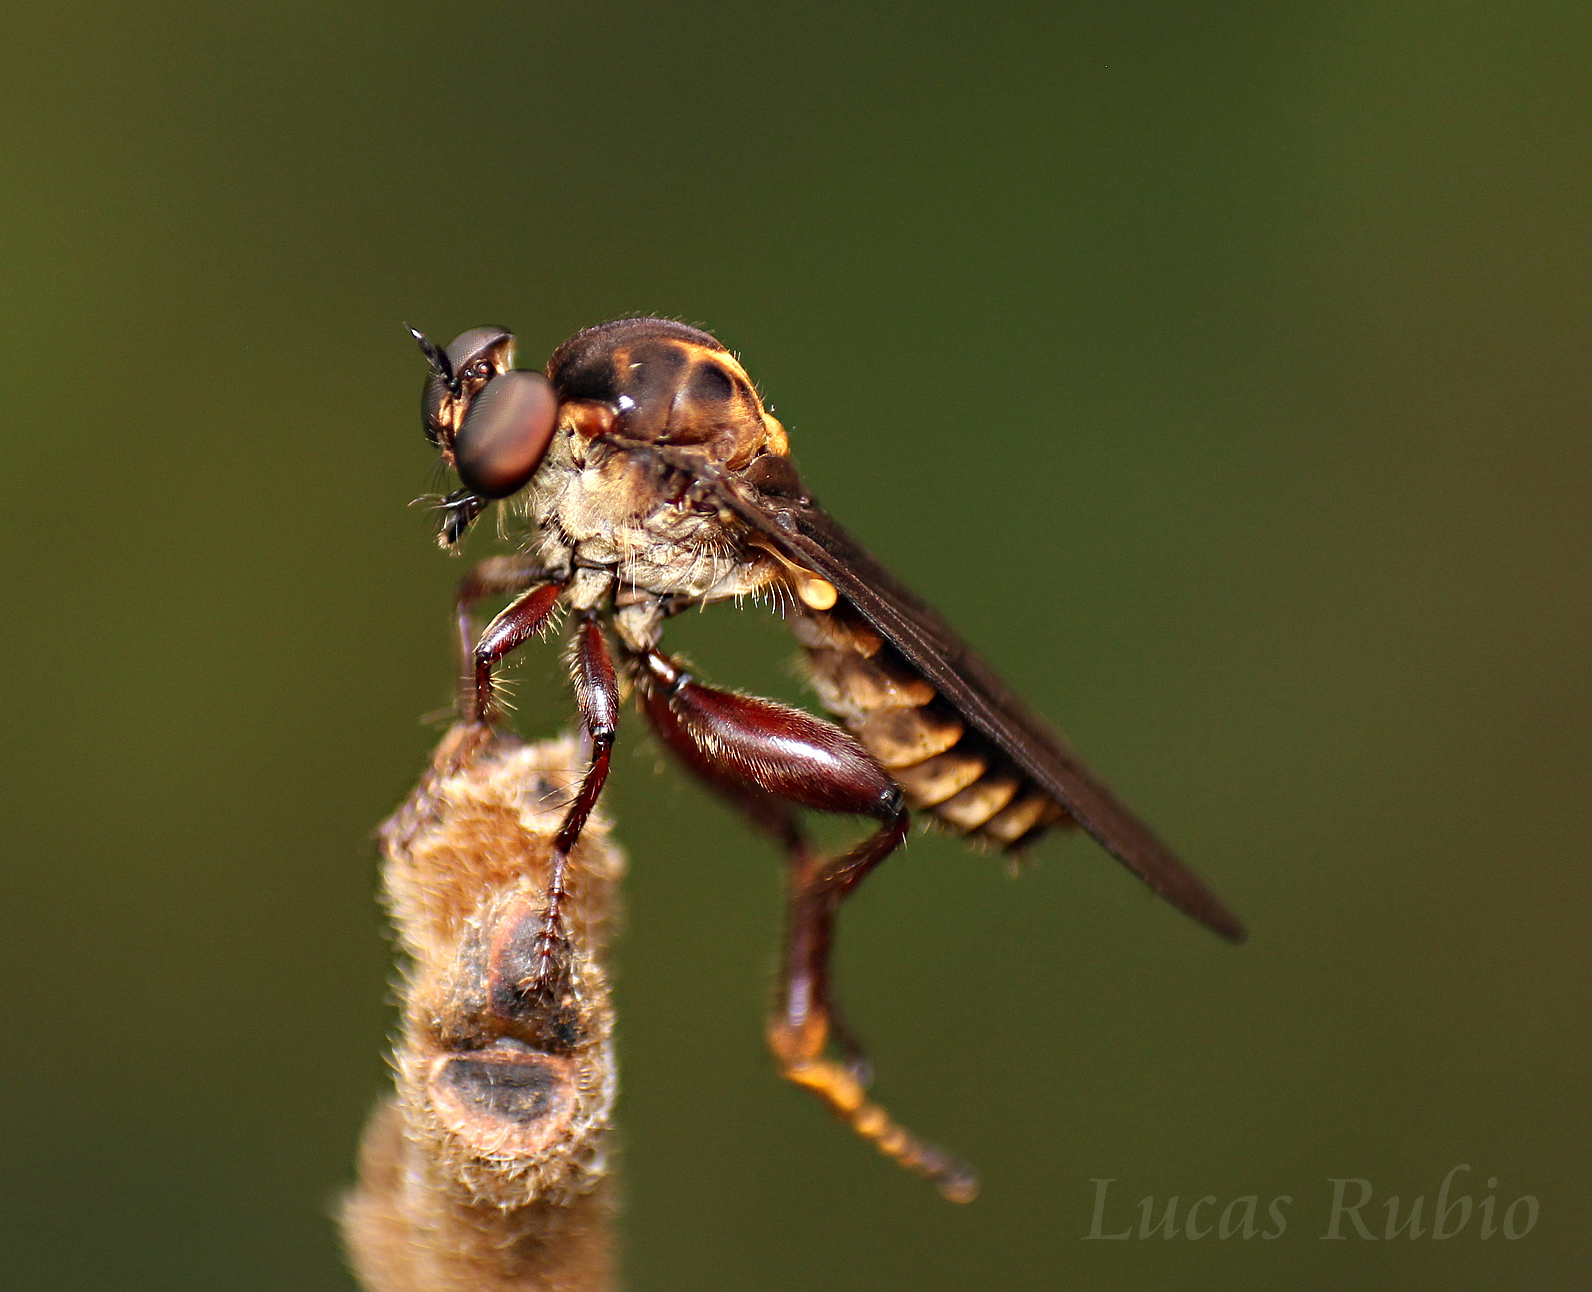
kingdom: Animalia
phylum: Arthropoda
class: Insecta
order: Diptera
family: Asilidae
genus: Holcocephala
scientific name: Holcocephala coriacea
